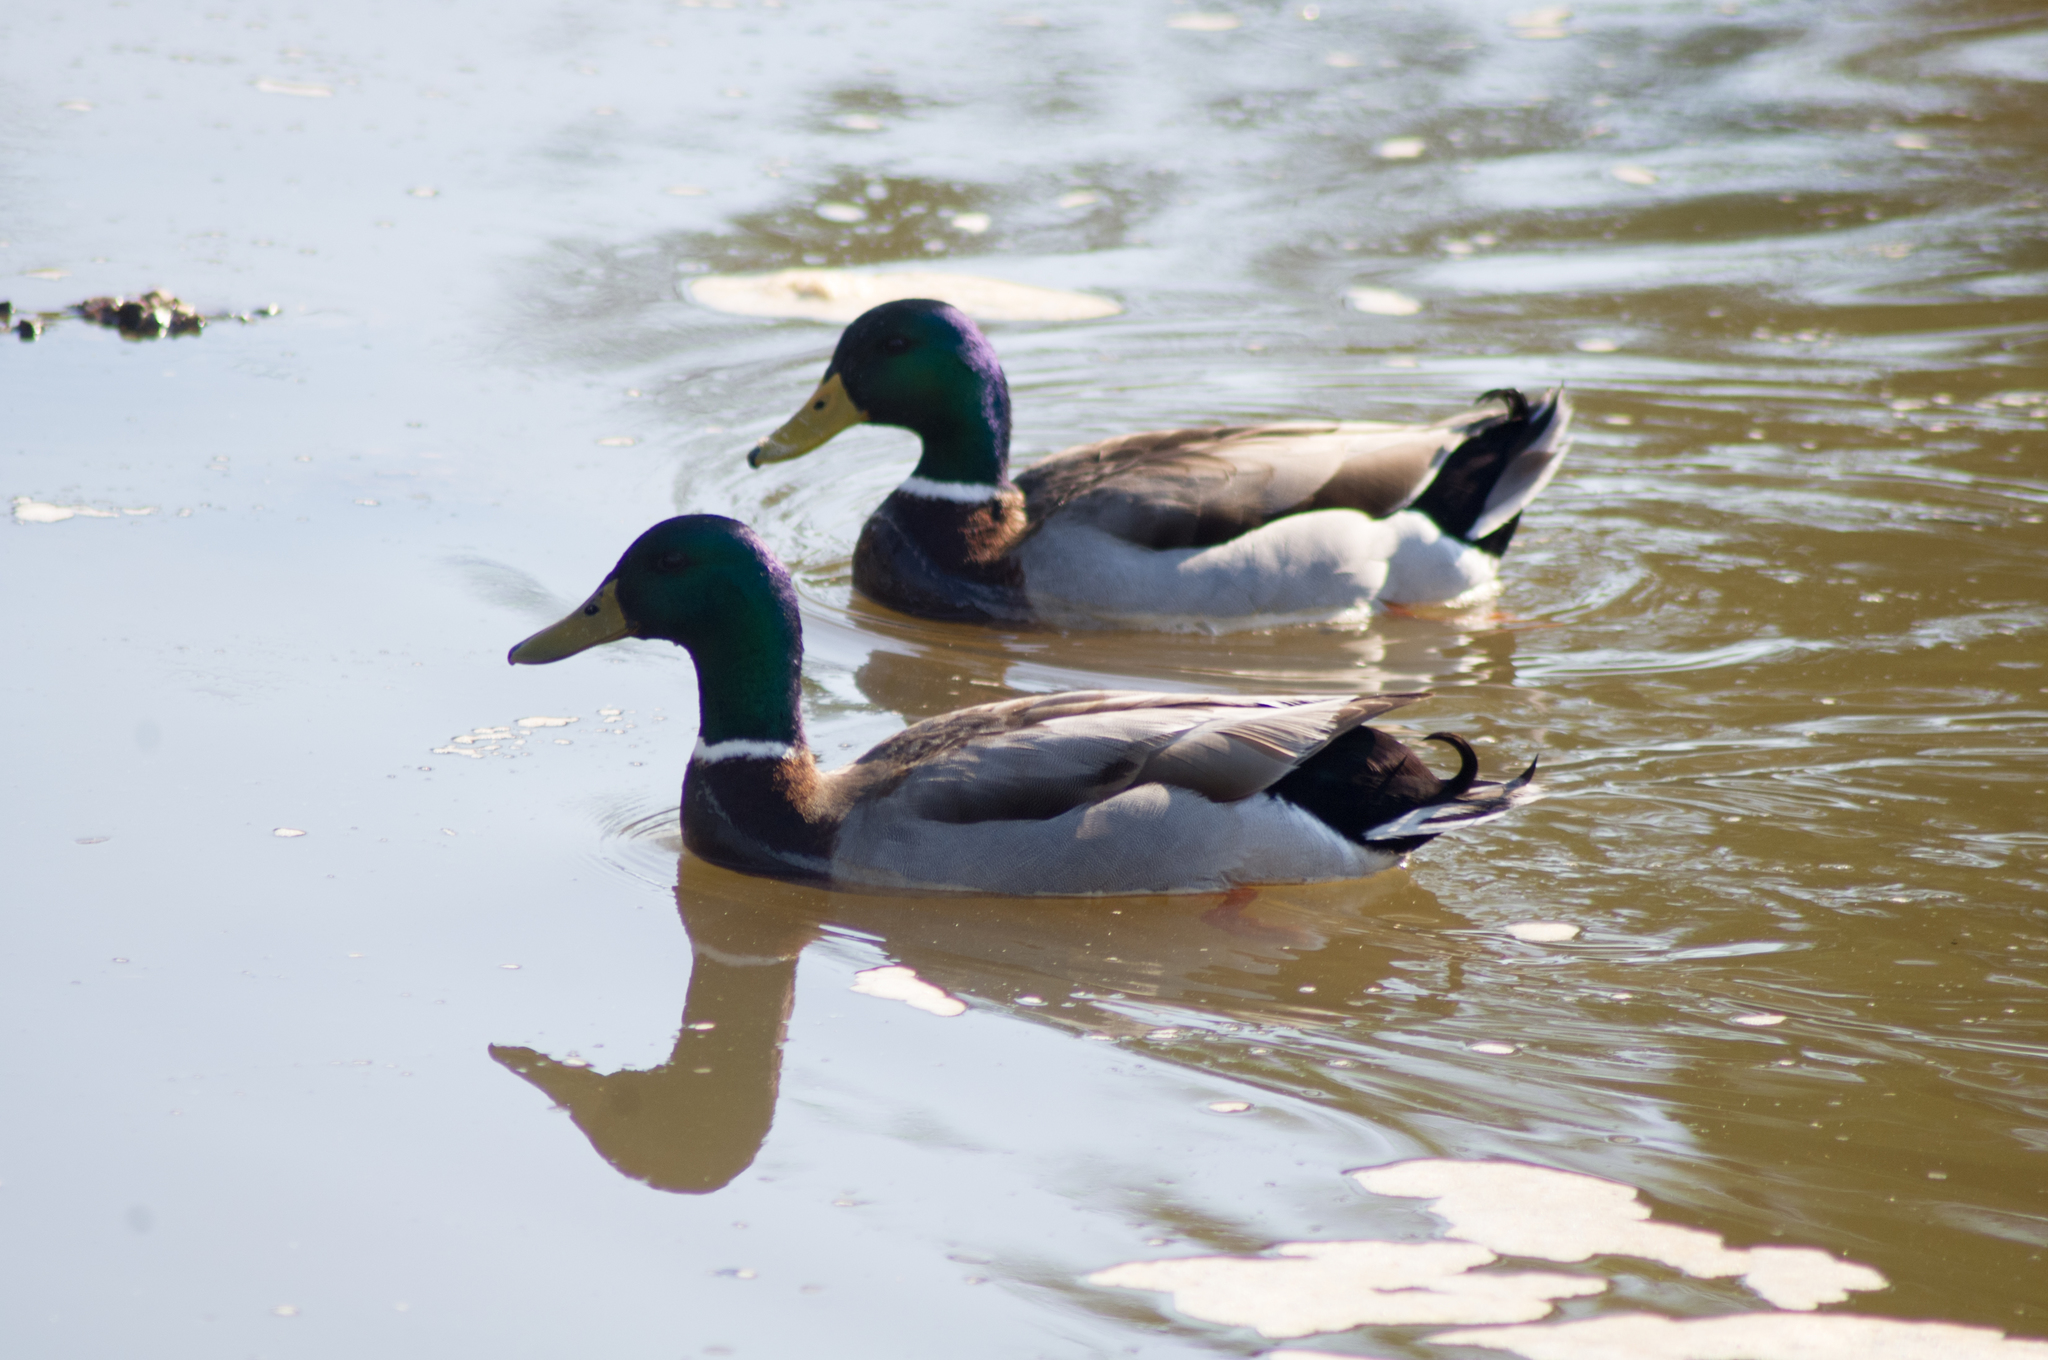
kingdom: Animalia
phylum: Chordata
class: Aves
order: Anseriformes
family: Anatidae
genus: Anas
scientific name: Anas platyrhynchos
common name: Mallard
